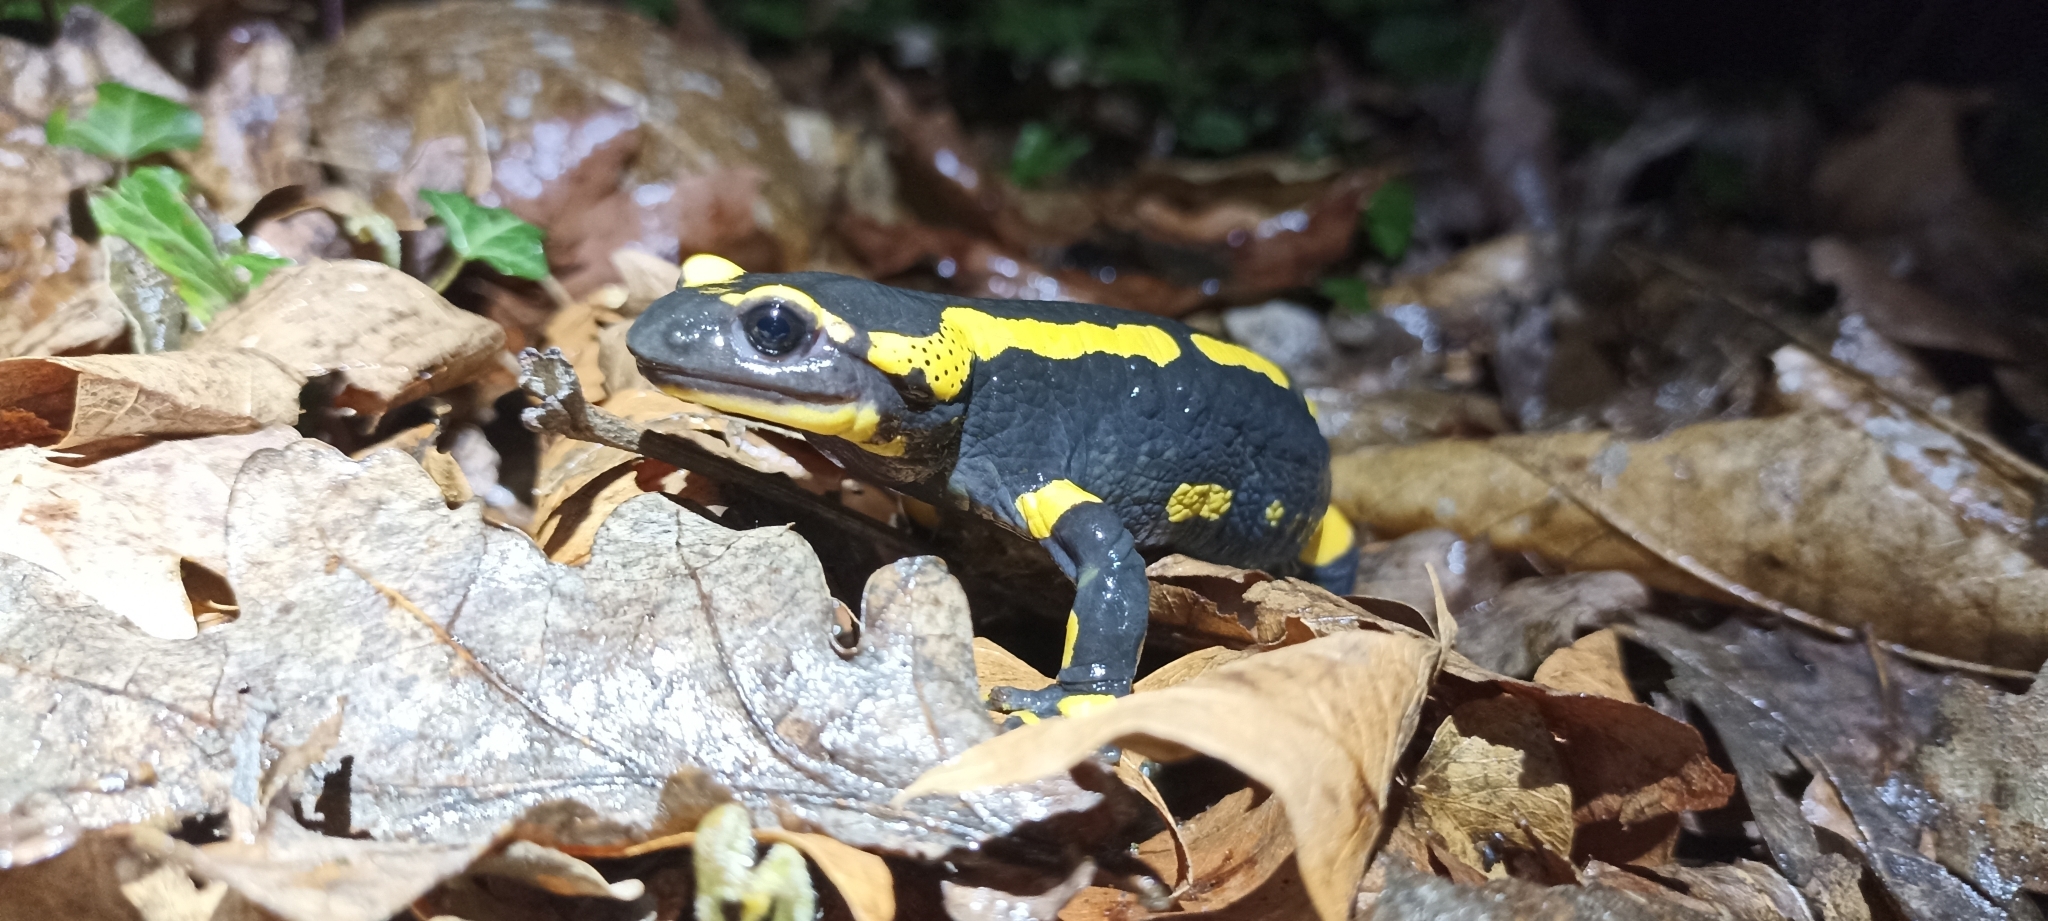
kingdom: Animalia
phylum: Chordata
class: Amphibia
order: Caudata
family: Salamandridae
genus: Salamandra
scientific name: Salamandra salamandra
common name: Fire salamander
